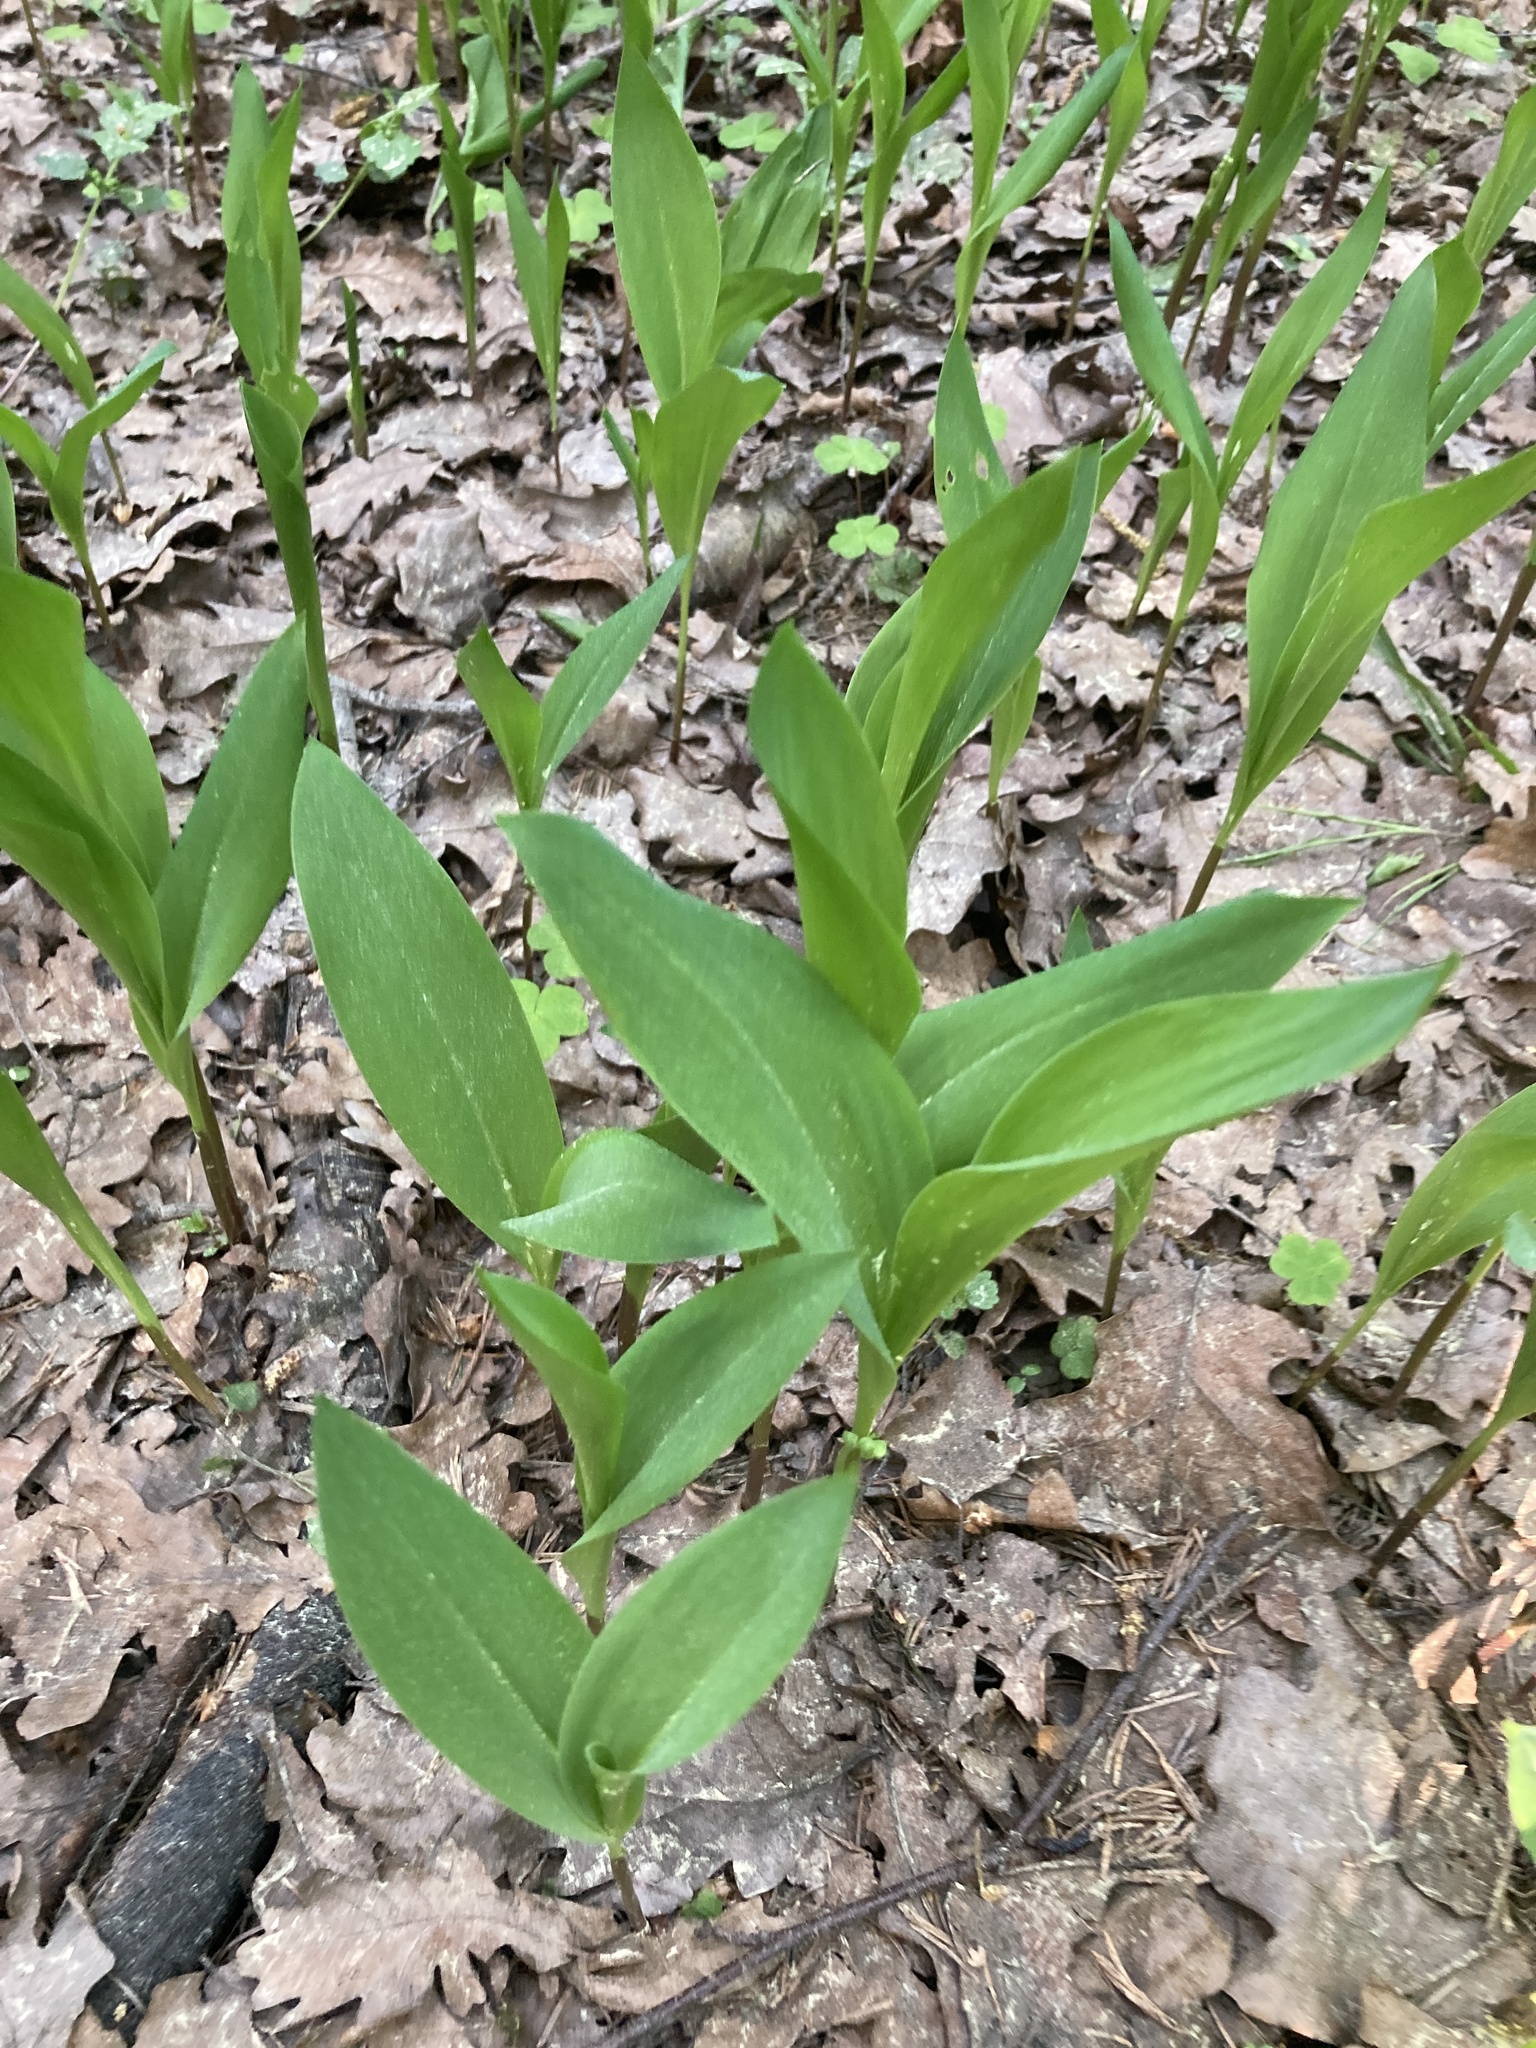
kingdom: Plantae
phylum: Tracheophyta
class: Liliopsida
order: Asparagales
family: Asparagaceae
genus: Convallaria
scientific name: Convallaria majalis
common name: Lily-of-the-valley
